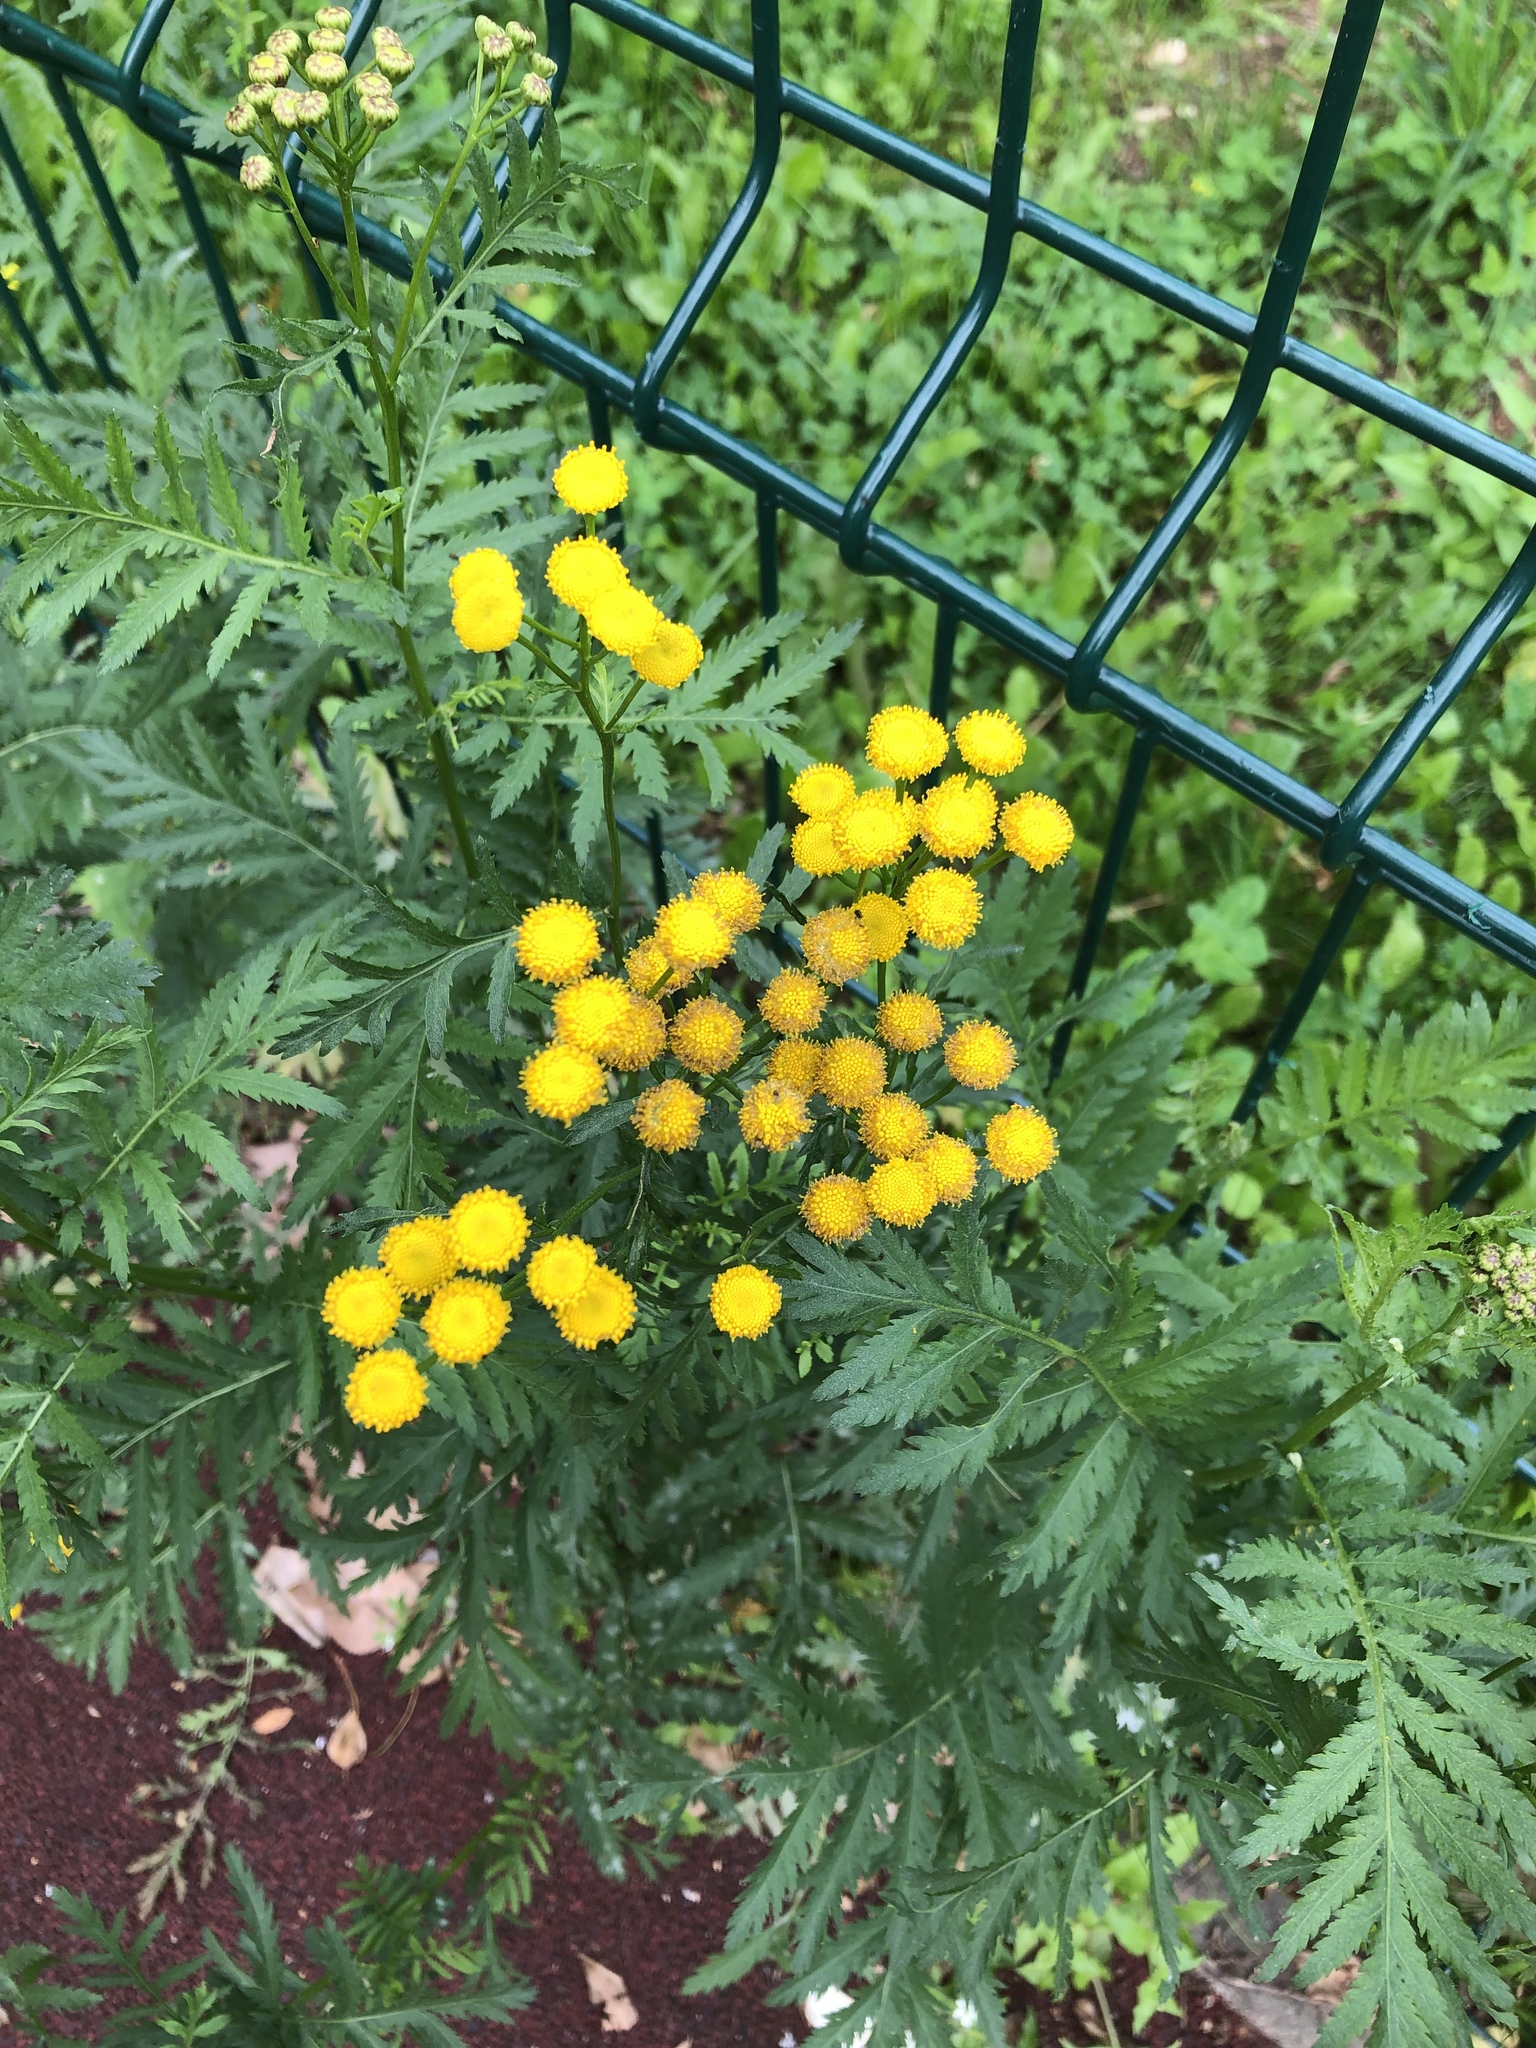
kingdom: Plantae
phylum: Tracheophyta
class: Magnoliopsida
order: Asterales
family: Asteraceae
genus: Tanacetum
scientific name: Tanacetum vulgare
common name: Common tansy
